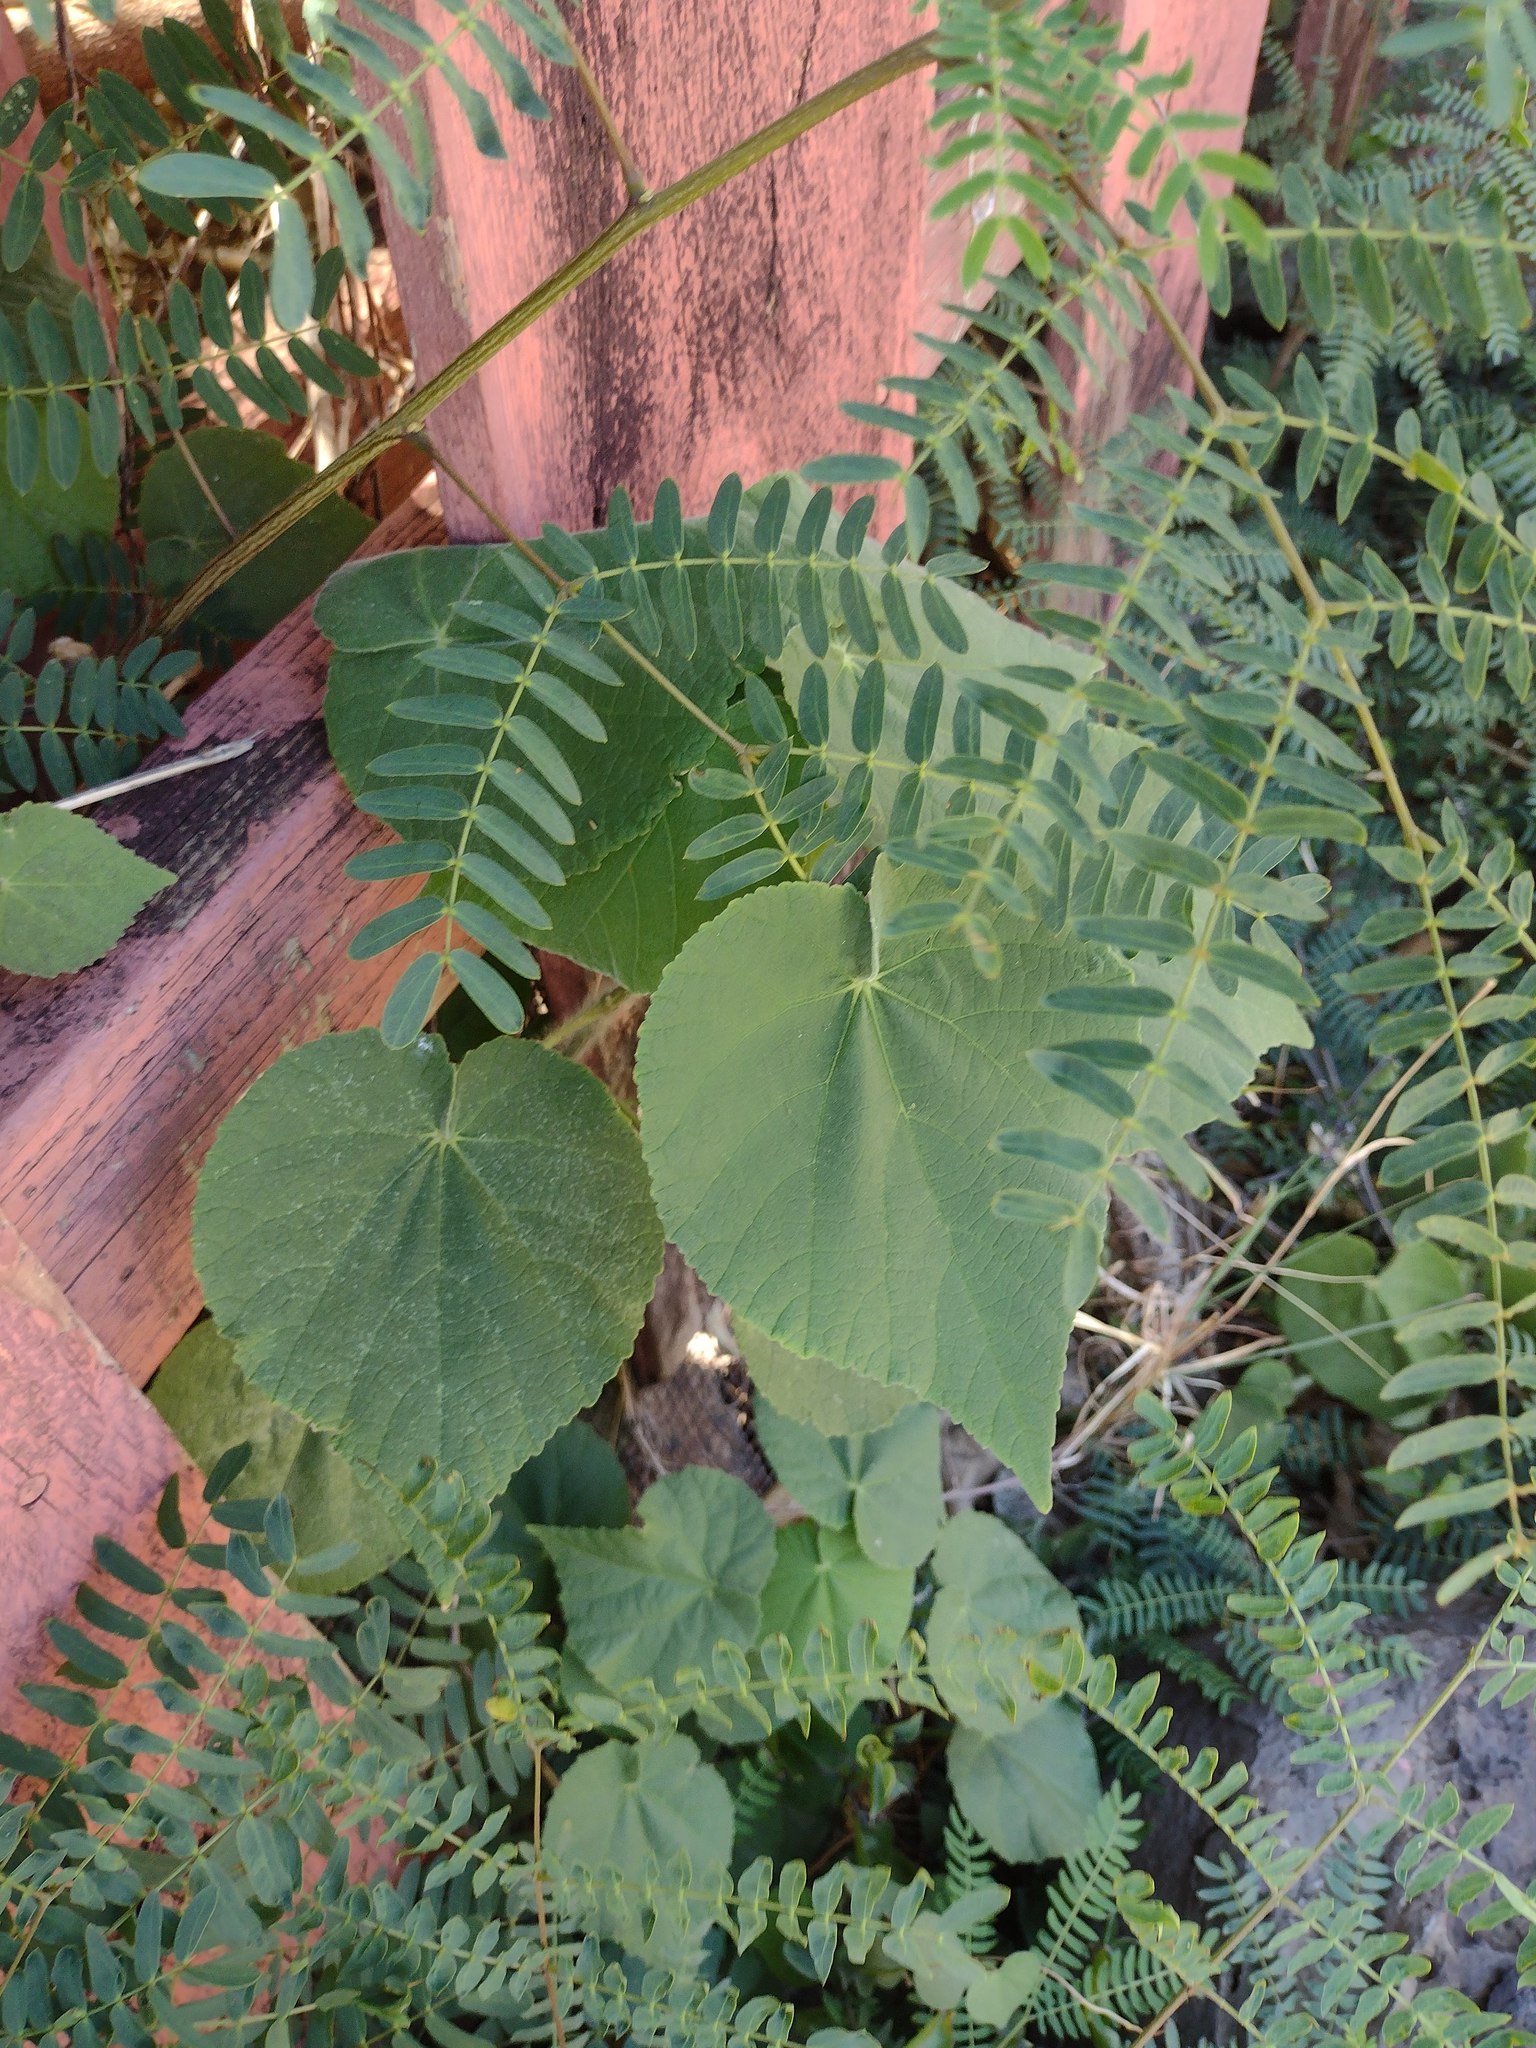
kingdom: Plantae
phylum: Tracheophyta
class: Magnoliopsida
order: Malvales
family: Malvaceae
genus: Abutilon
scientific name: Abutilon grandifolium
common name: Hairy abutilon
